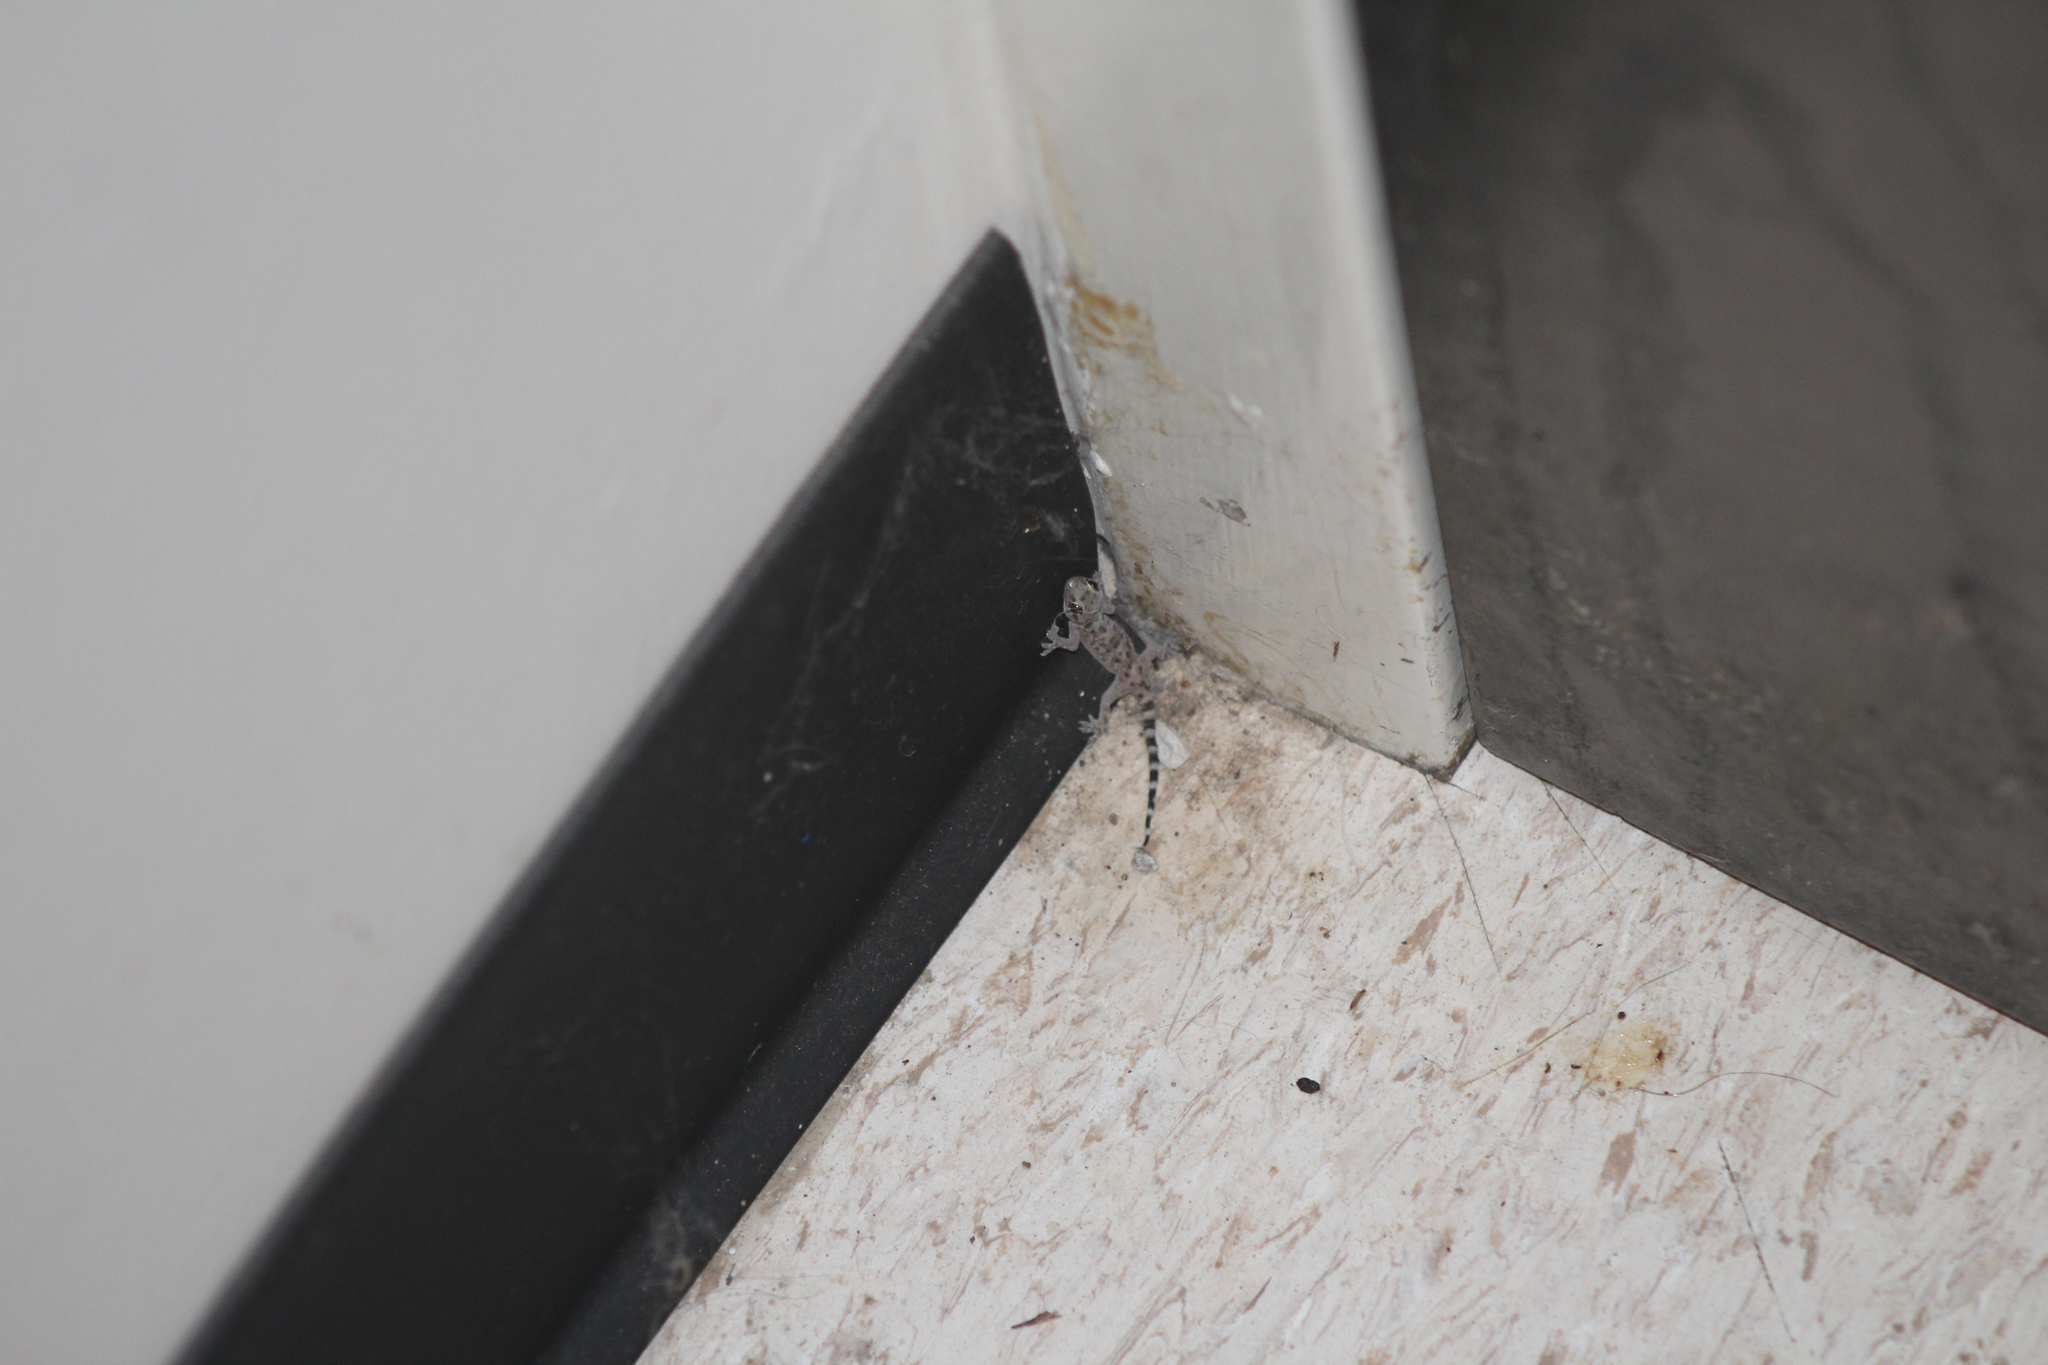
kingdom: Animalia
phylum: Chordata
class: Squamata
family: Gekkonidae
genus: Hemidactylus
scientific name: Hemidactylus turcicus
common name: Turkish gecko
